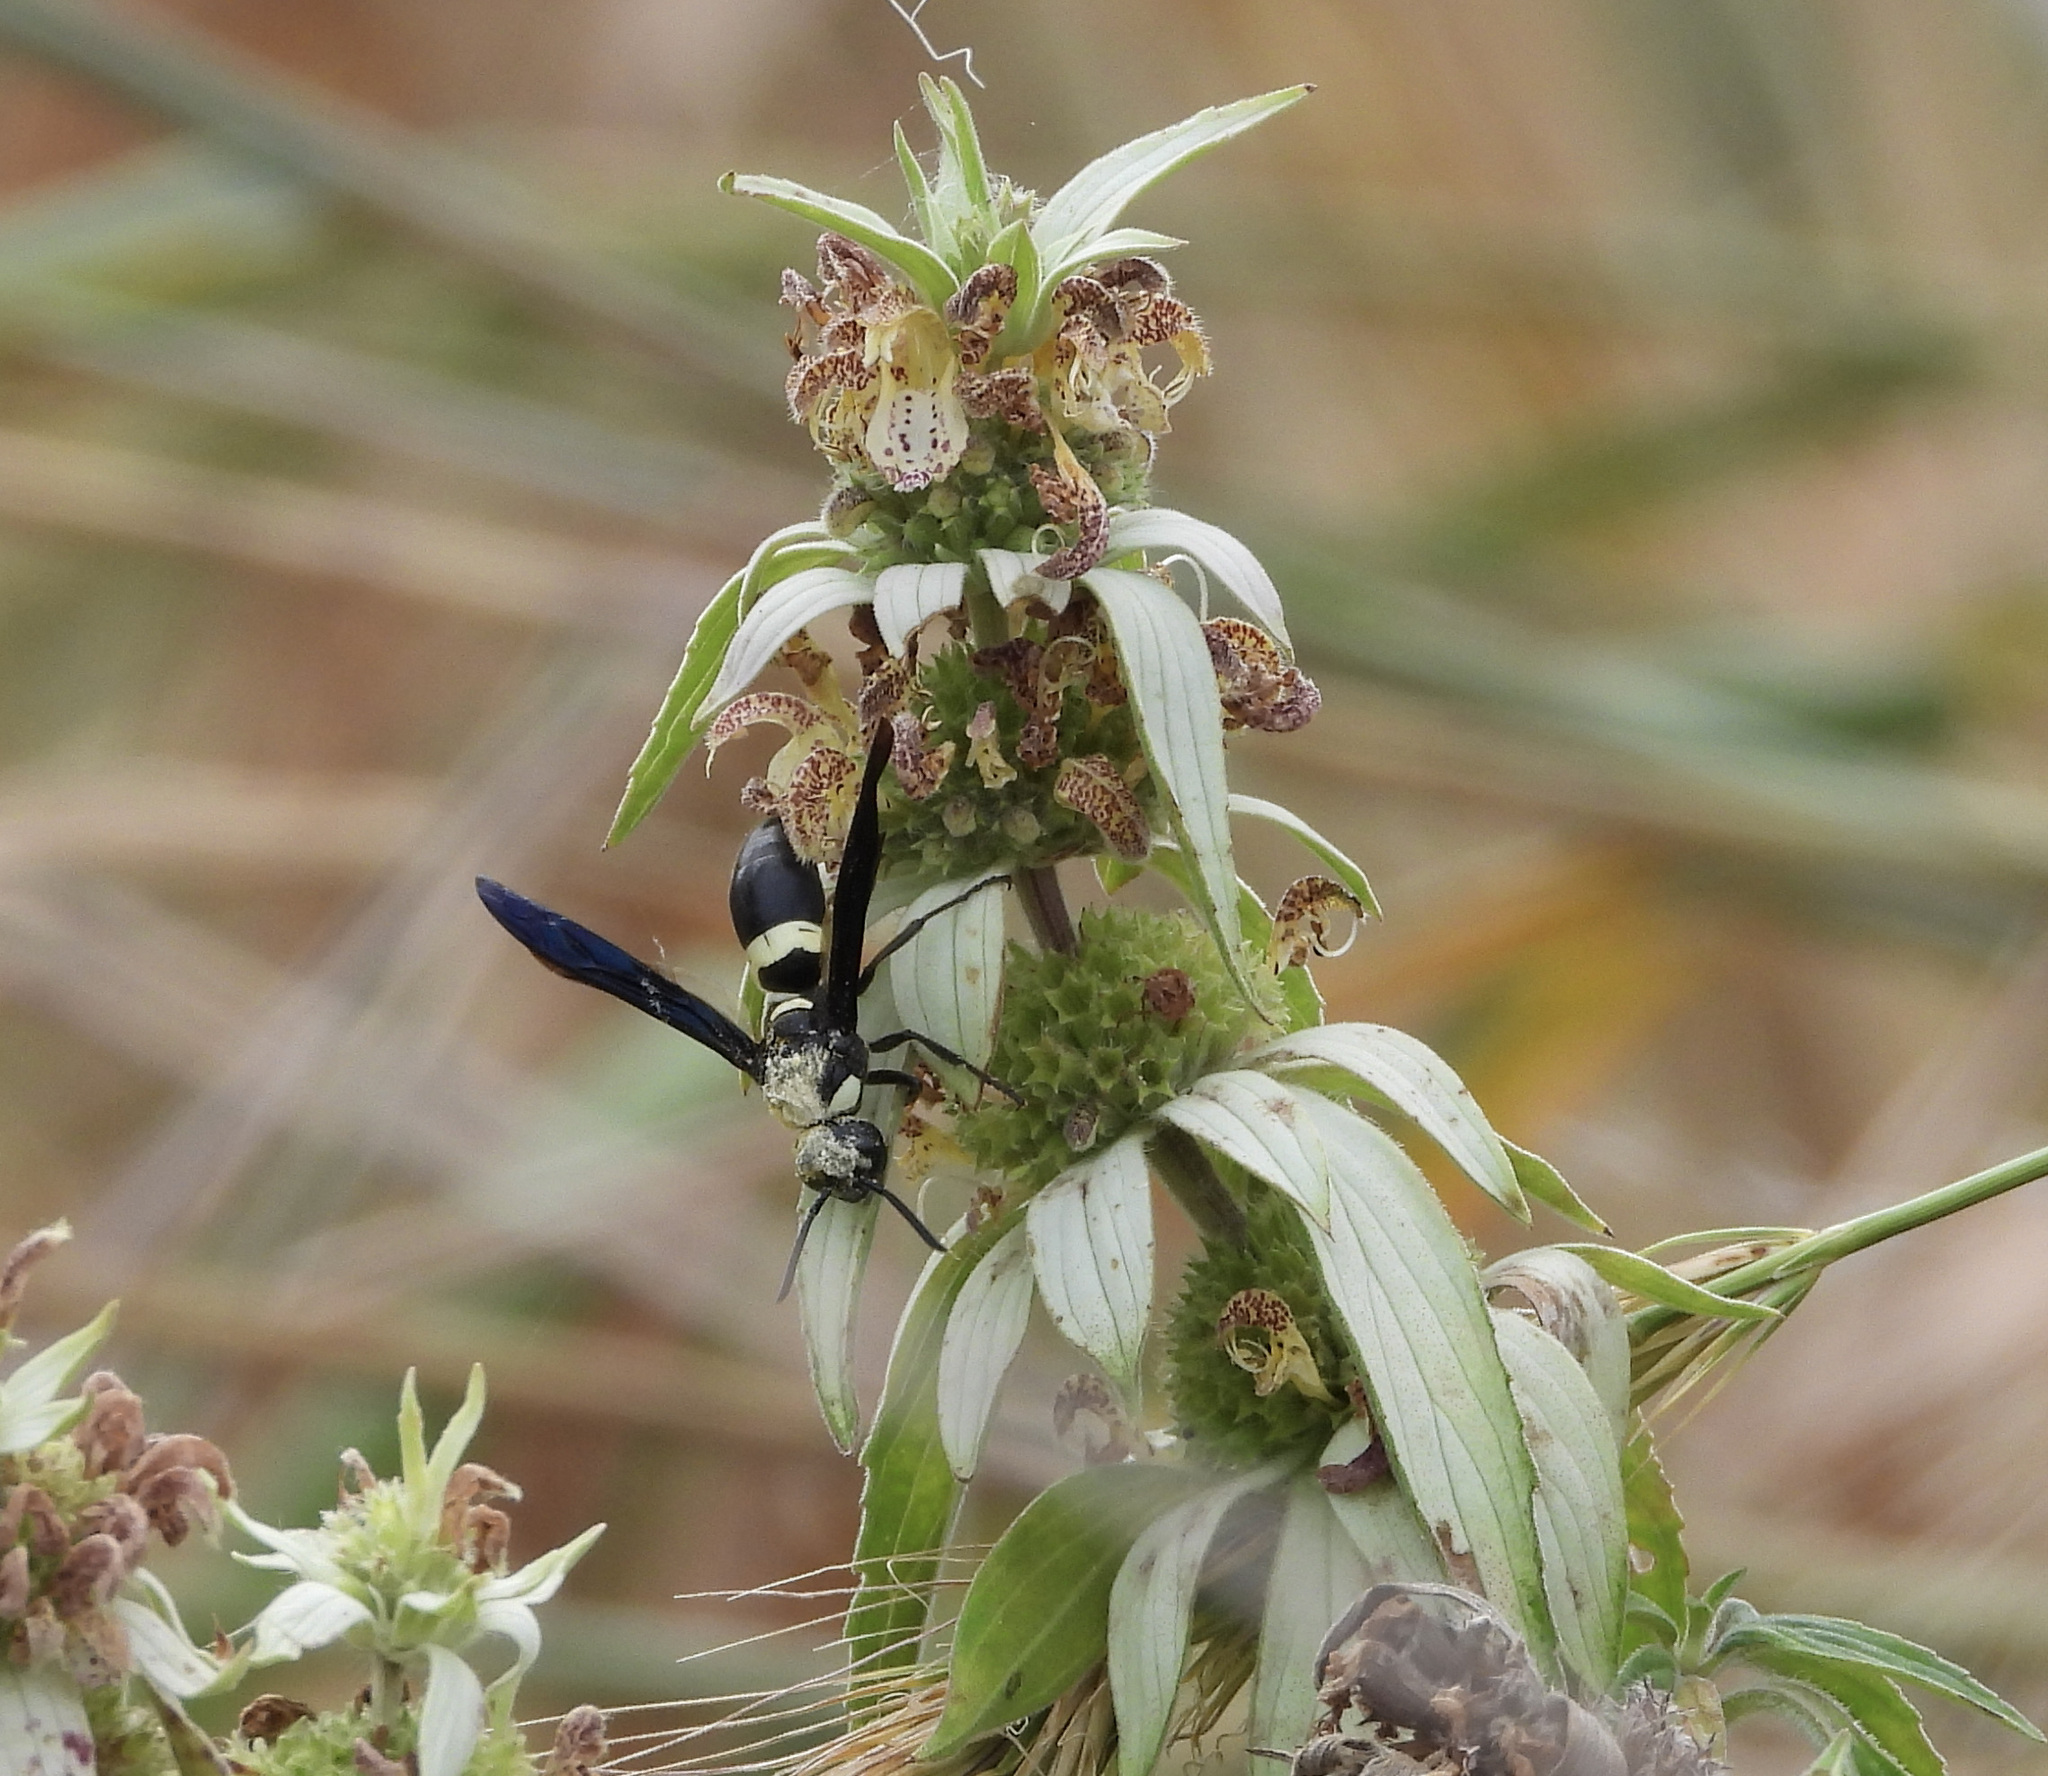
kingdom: Animalia
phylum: Arthropoda
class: Insecta
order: Hymenoptera
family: Eumenidae
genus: Monobia
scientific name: Monobia quadridens
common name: Four-toothed mason wasp
